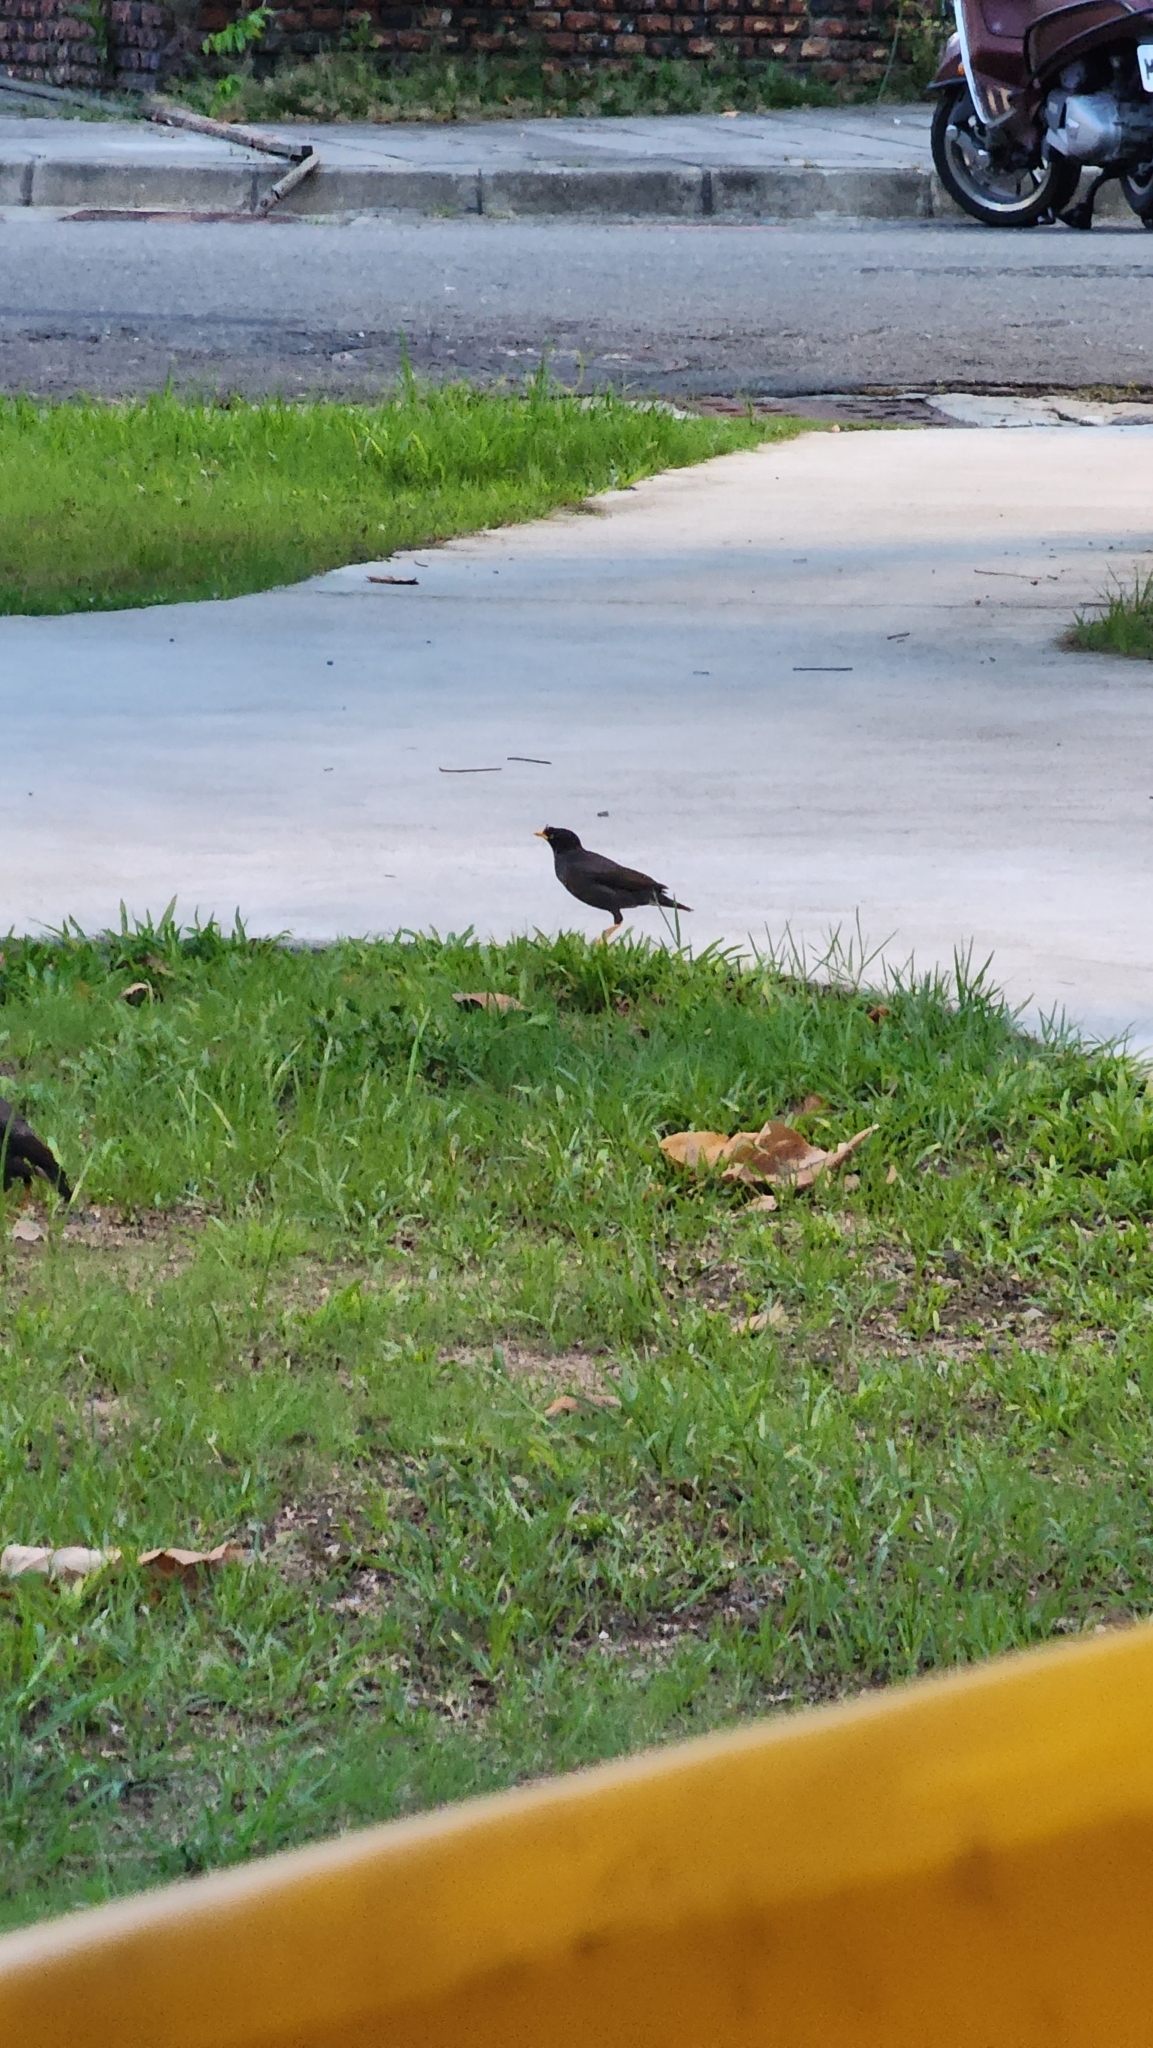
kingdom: Animalia
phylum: Chordata
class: Aves
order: Passeriformes
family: Sturnidae
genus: Acridotheres
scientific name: Acridotheres javanicus
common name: Javan myna
